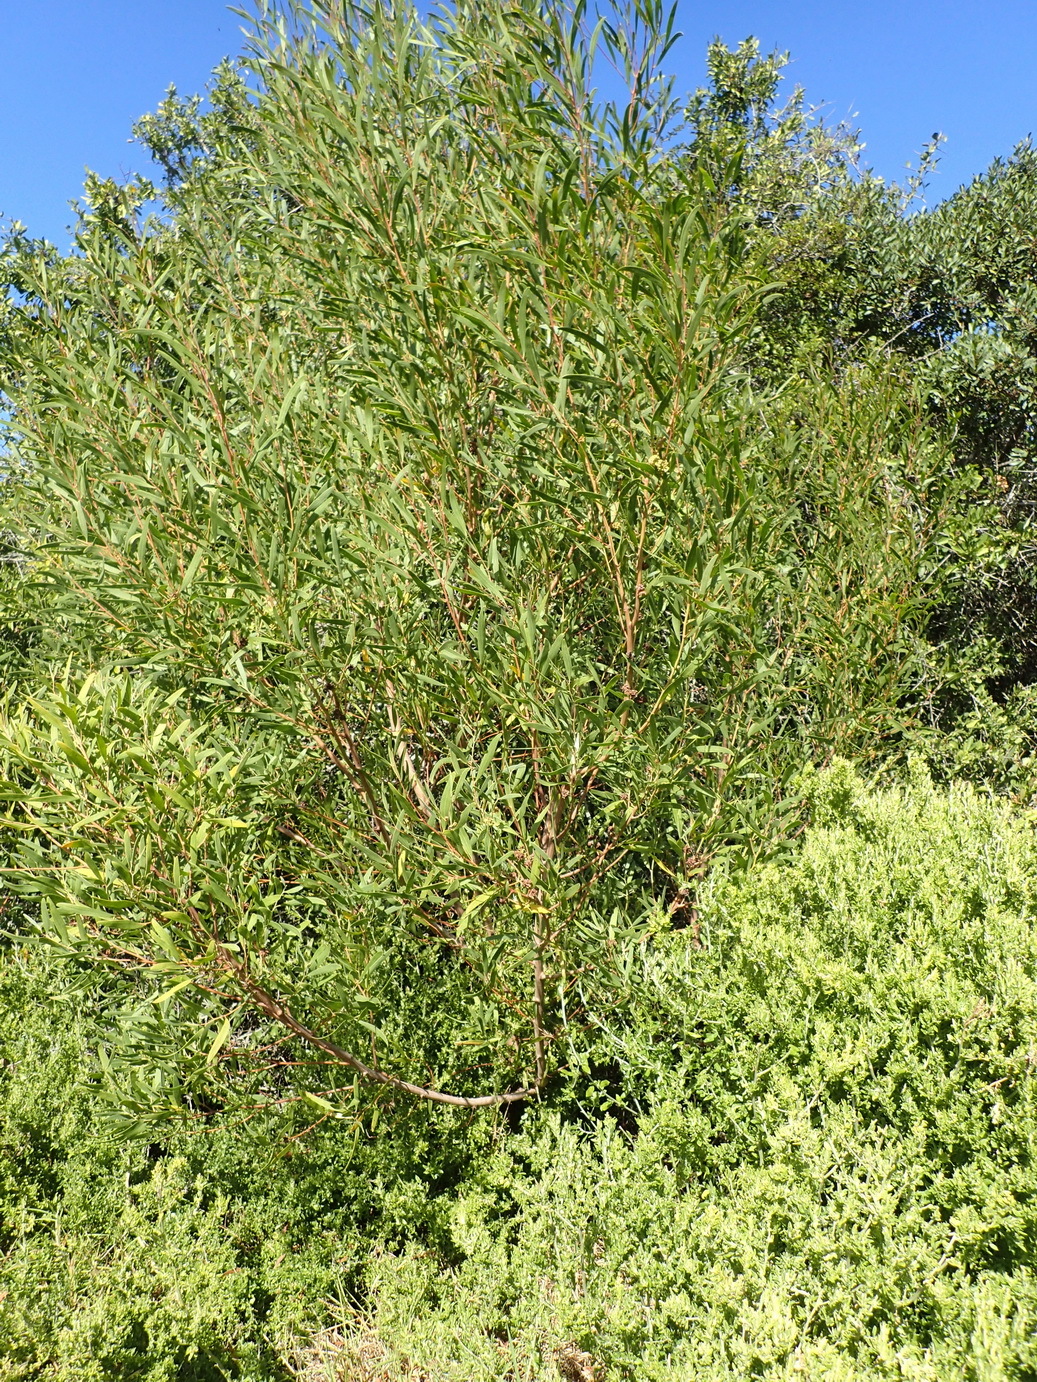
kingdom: Plantae
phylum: Tracheophyta
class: Magnoliopsida
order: Fabales
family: Fabaceae
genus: Acacia
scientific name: Acacia cyclops
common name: Coastal wattle
